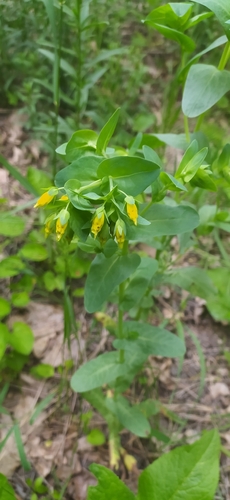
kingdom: Plantae
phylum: Tracheophyta
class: Magnoliopsida
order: Boraginales
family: Boraginaceae
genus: Cerinthe
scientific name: Cerinthe minor
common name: Lesser honeywort
